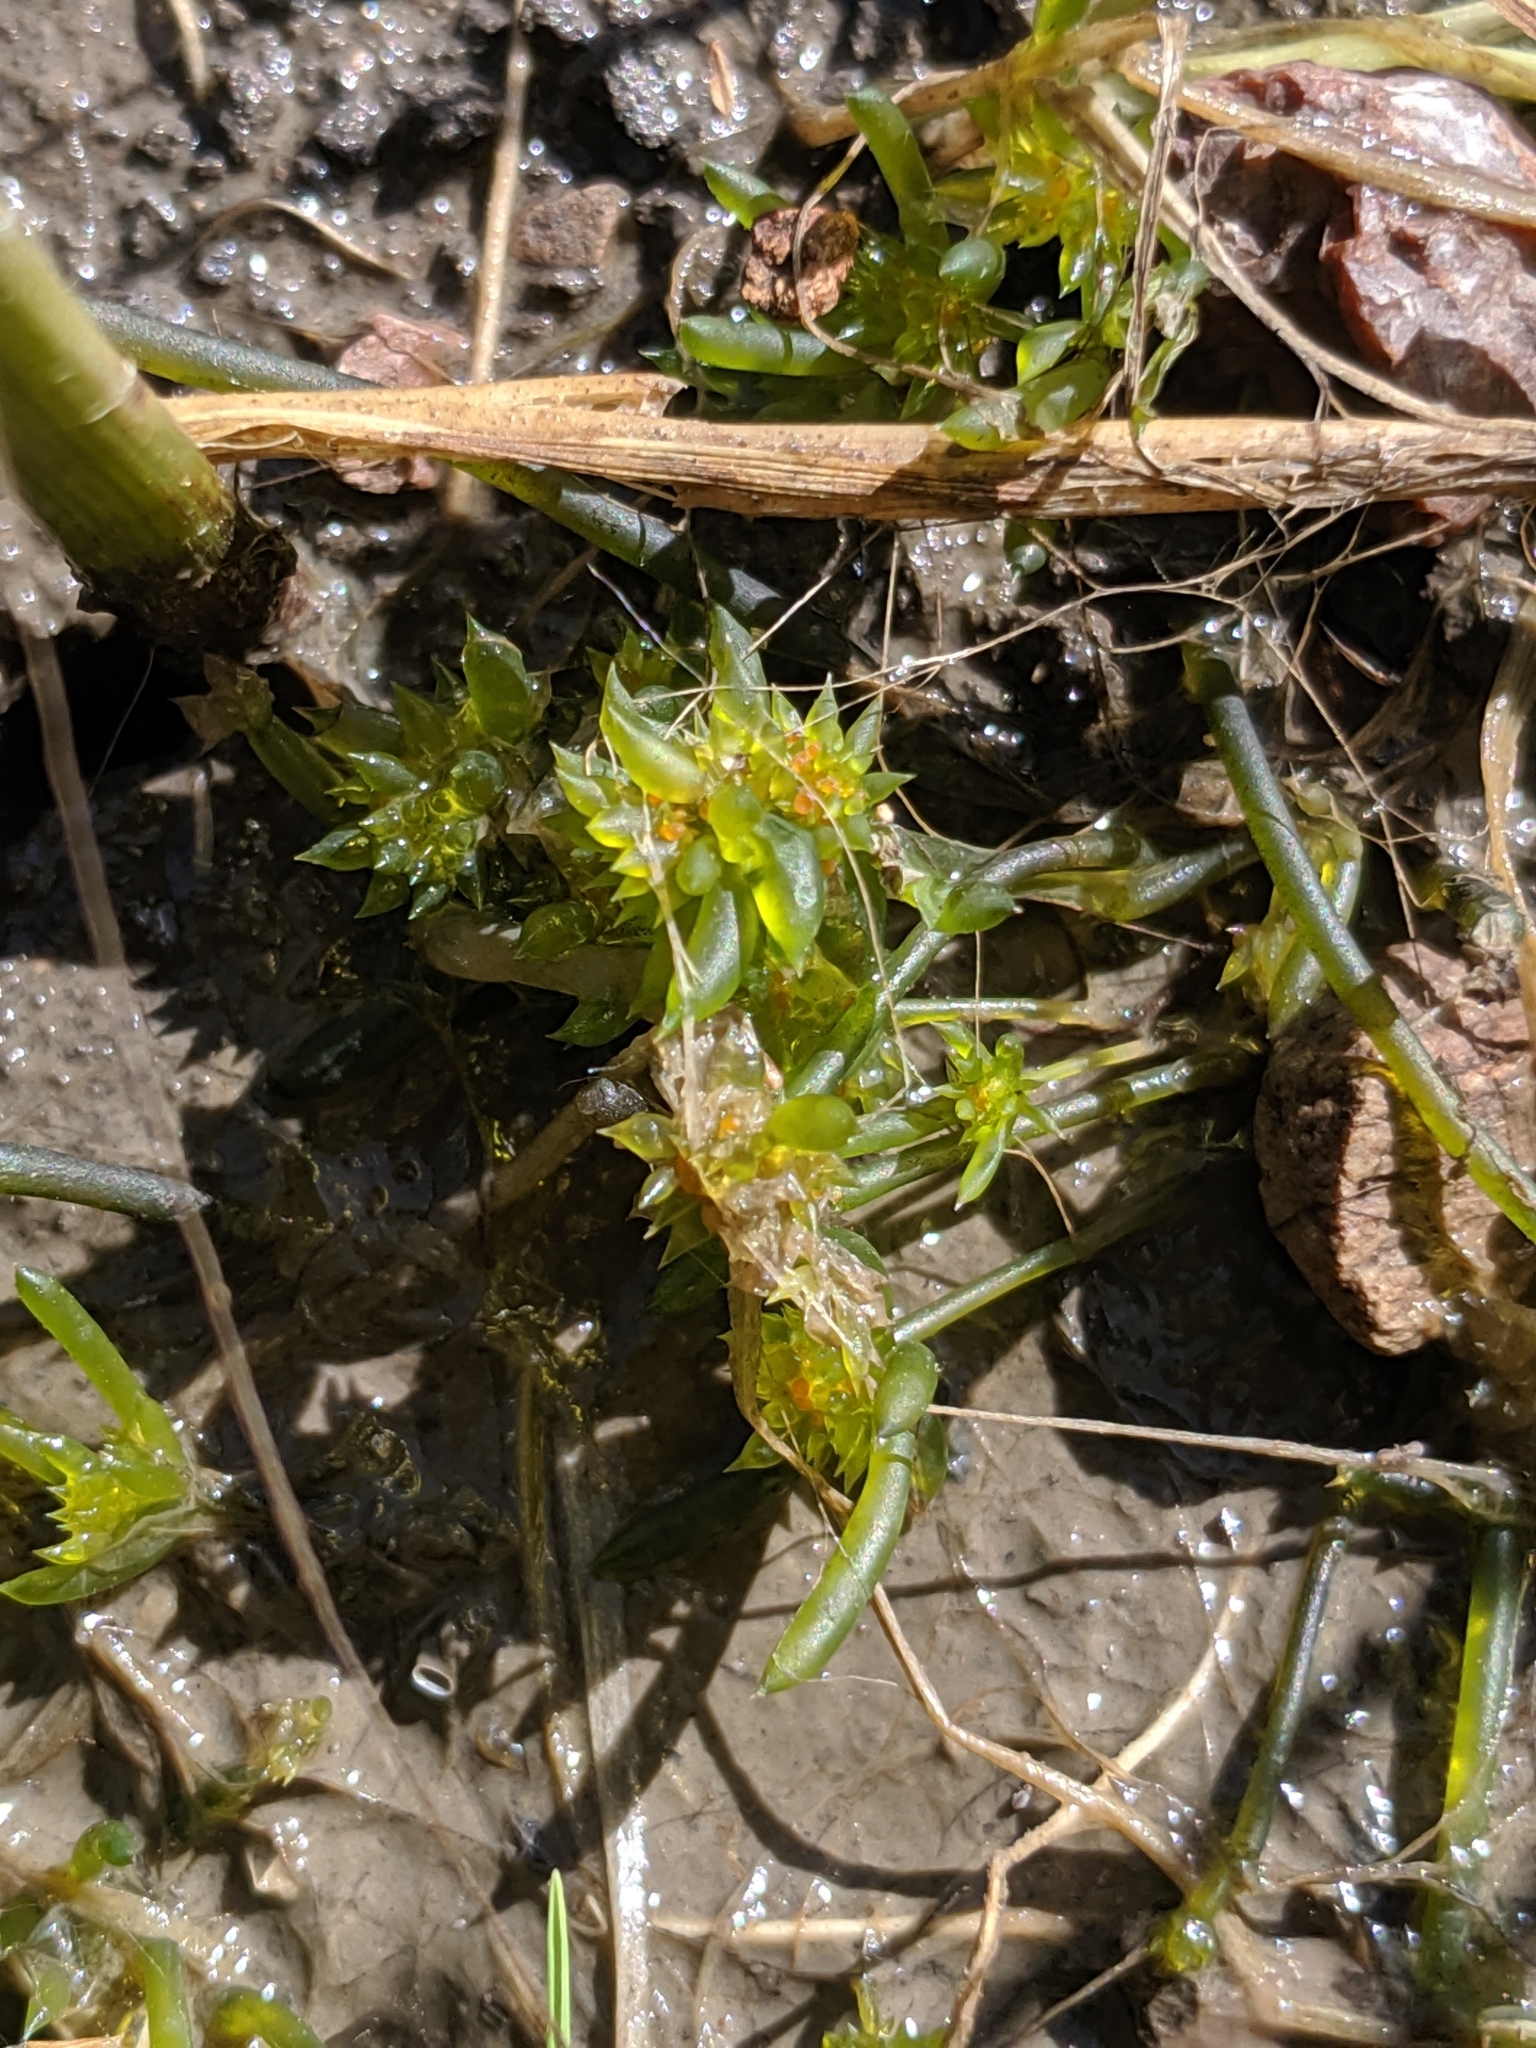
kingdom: Plantae
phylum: Charophyta
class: Charophyceae
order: Charales
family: Characeae
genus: Nitella
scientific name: Nitella clavata
